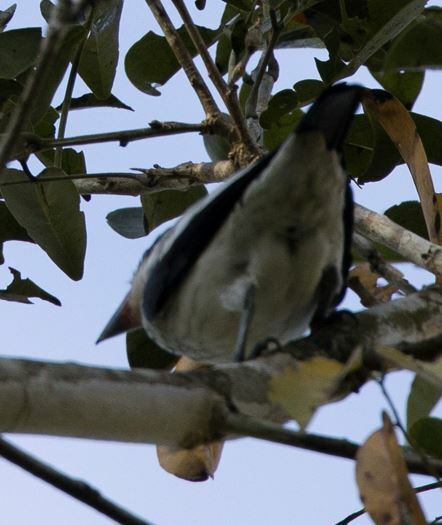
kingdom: Animalia
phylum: Chordata
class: Aves
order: Passeriformes
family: Cotingidae
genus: Tityra
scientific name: Tityra cayana
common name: Black-tailed tityra
